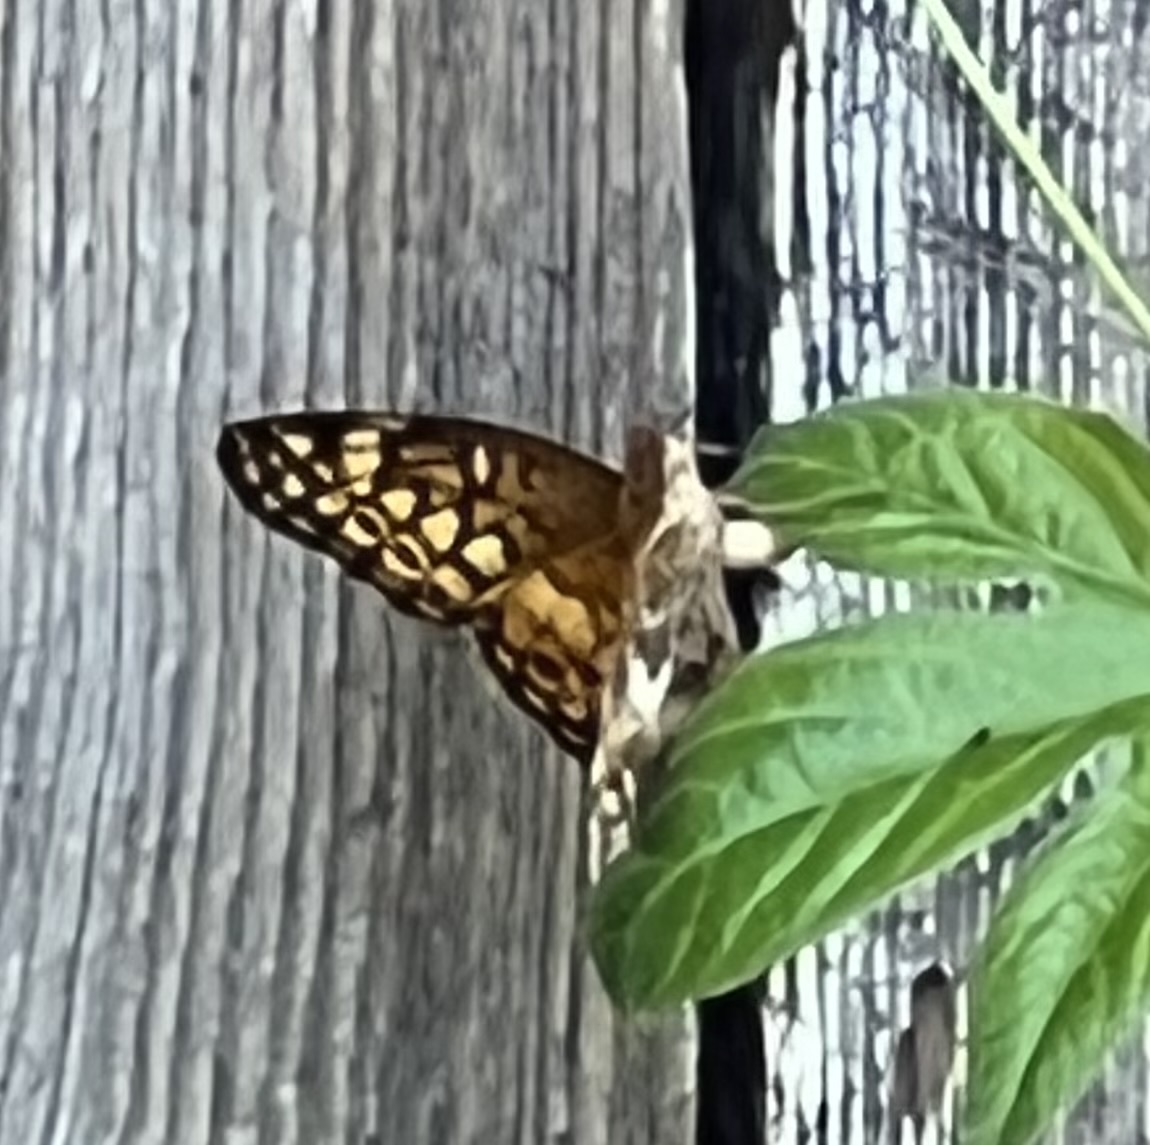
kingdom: Animalia
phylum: Arthropoda
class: Insecta
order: Lepidoptera
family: Nymphalidae
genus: Euptoieta
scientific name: Euptoieta claudia
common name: Variegated fritillary
